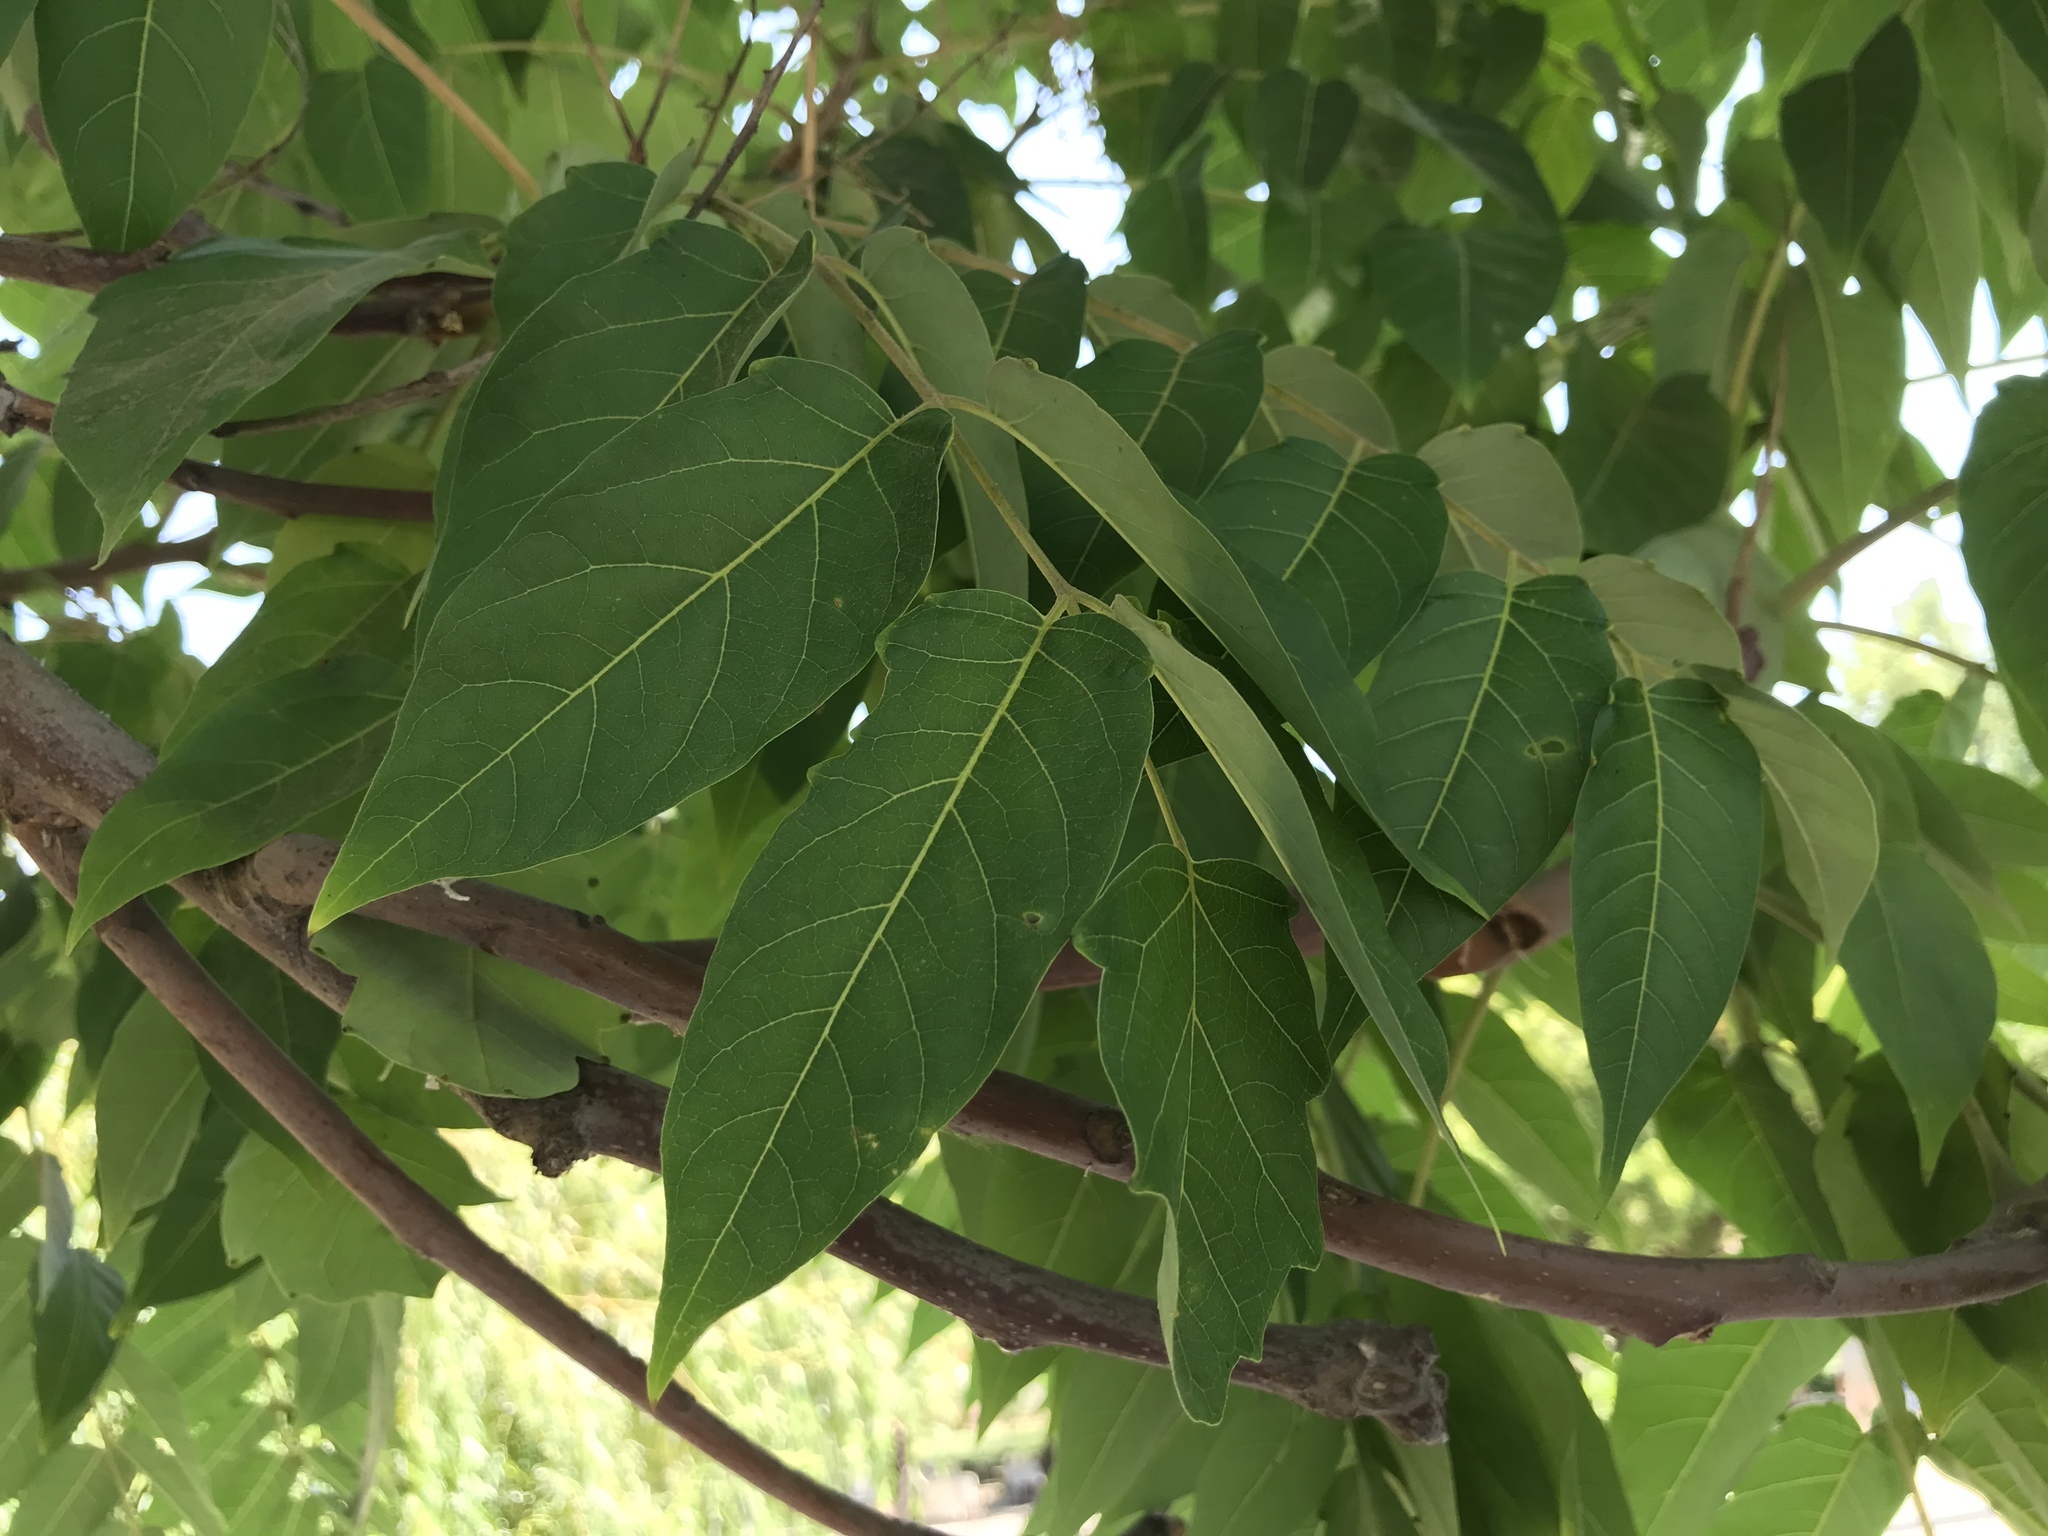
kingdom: Plantae
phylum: Tracheophyta
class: Magnoliopsida
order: Sapindales
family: Simaroubaceae
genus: Ailanthus
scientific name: Ailanthus altissima
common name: Tree-of-heaven
